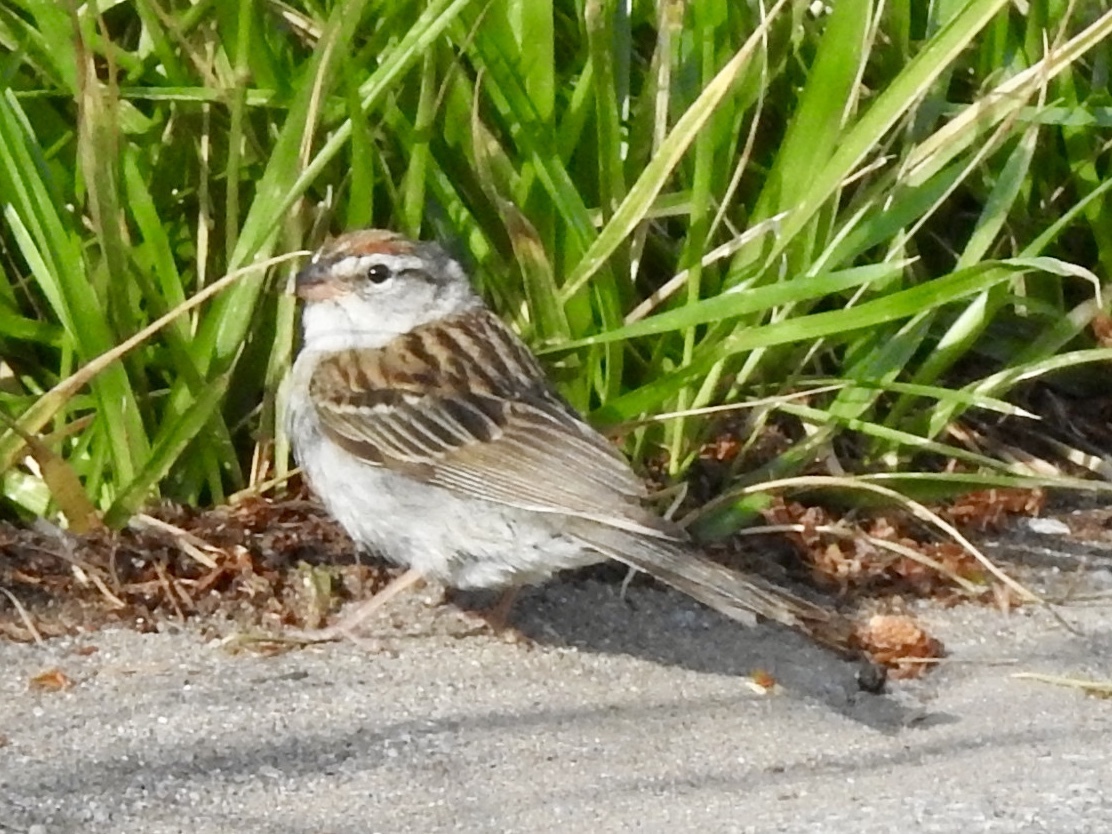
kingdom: Animalia
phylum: Chordata
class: Aves
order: Passeriformes
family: Passerellidae
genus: Spizella
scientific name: Spizella passerina
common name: Chipping sparrow
